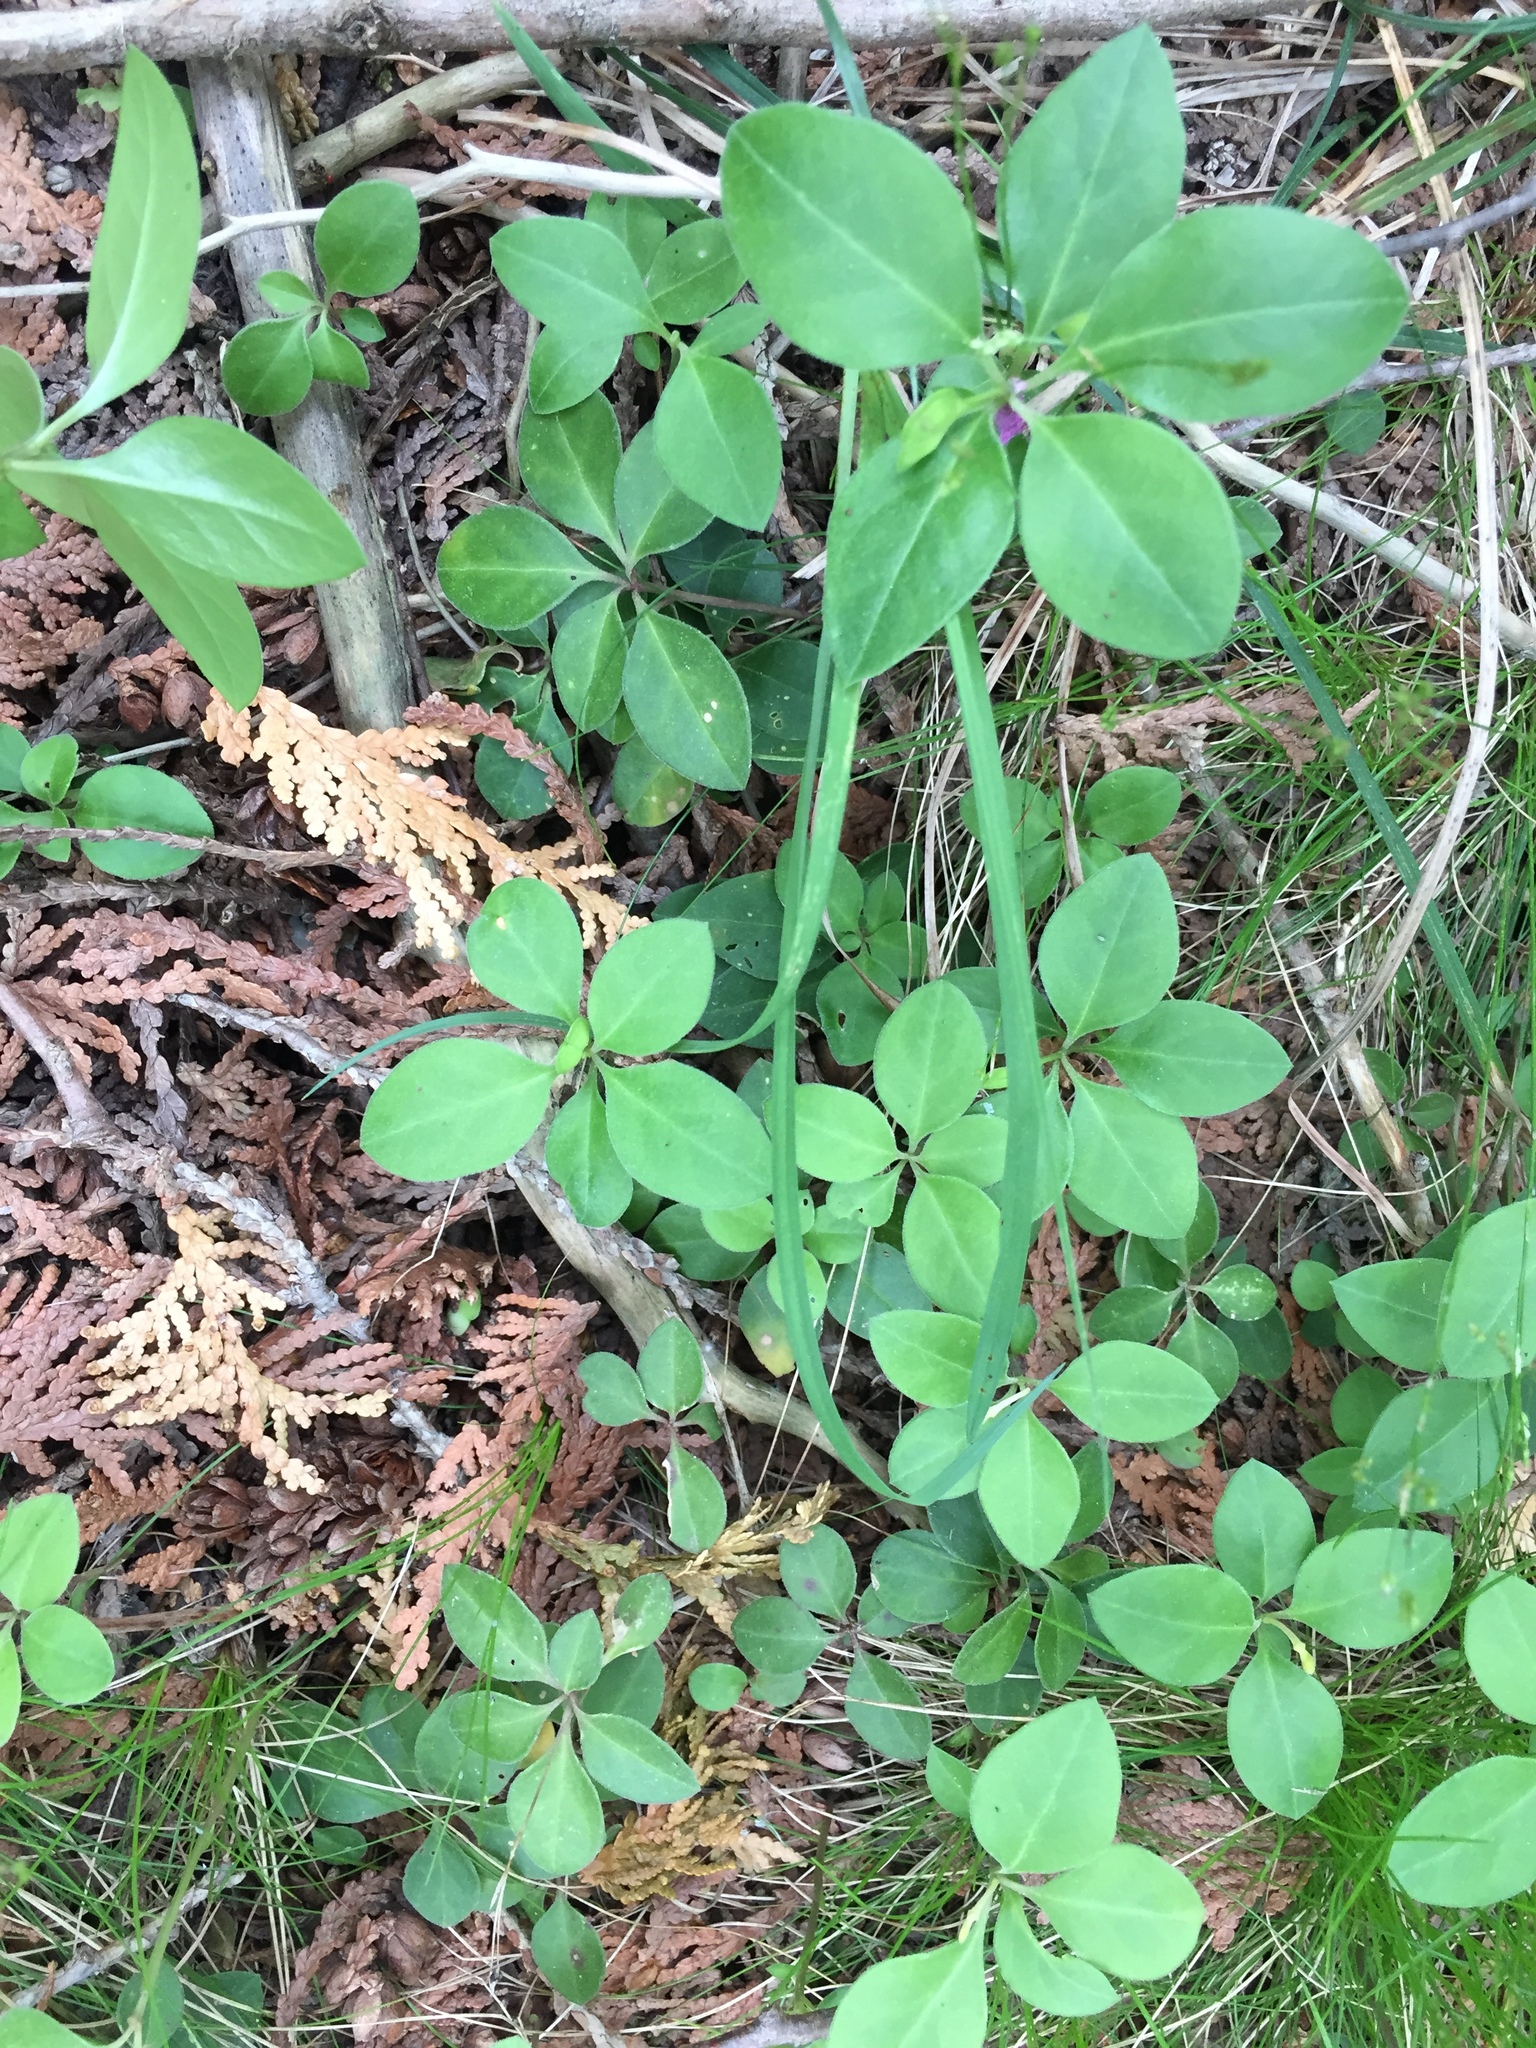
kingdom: Plantae
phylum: Tracheophyta
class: Magnoliopsida
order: Fabales
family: Polygalaceae
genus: Polygaloides
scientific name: Polygaloides paucifolia
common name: Bird-on-the-wing
